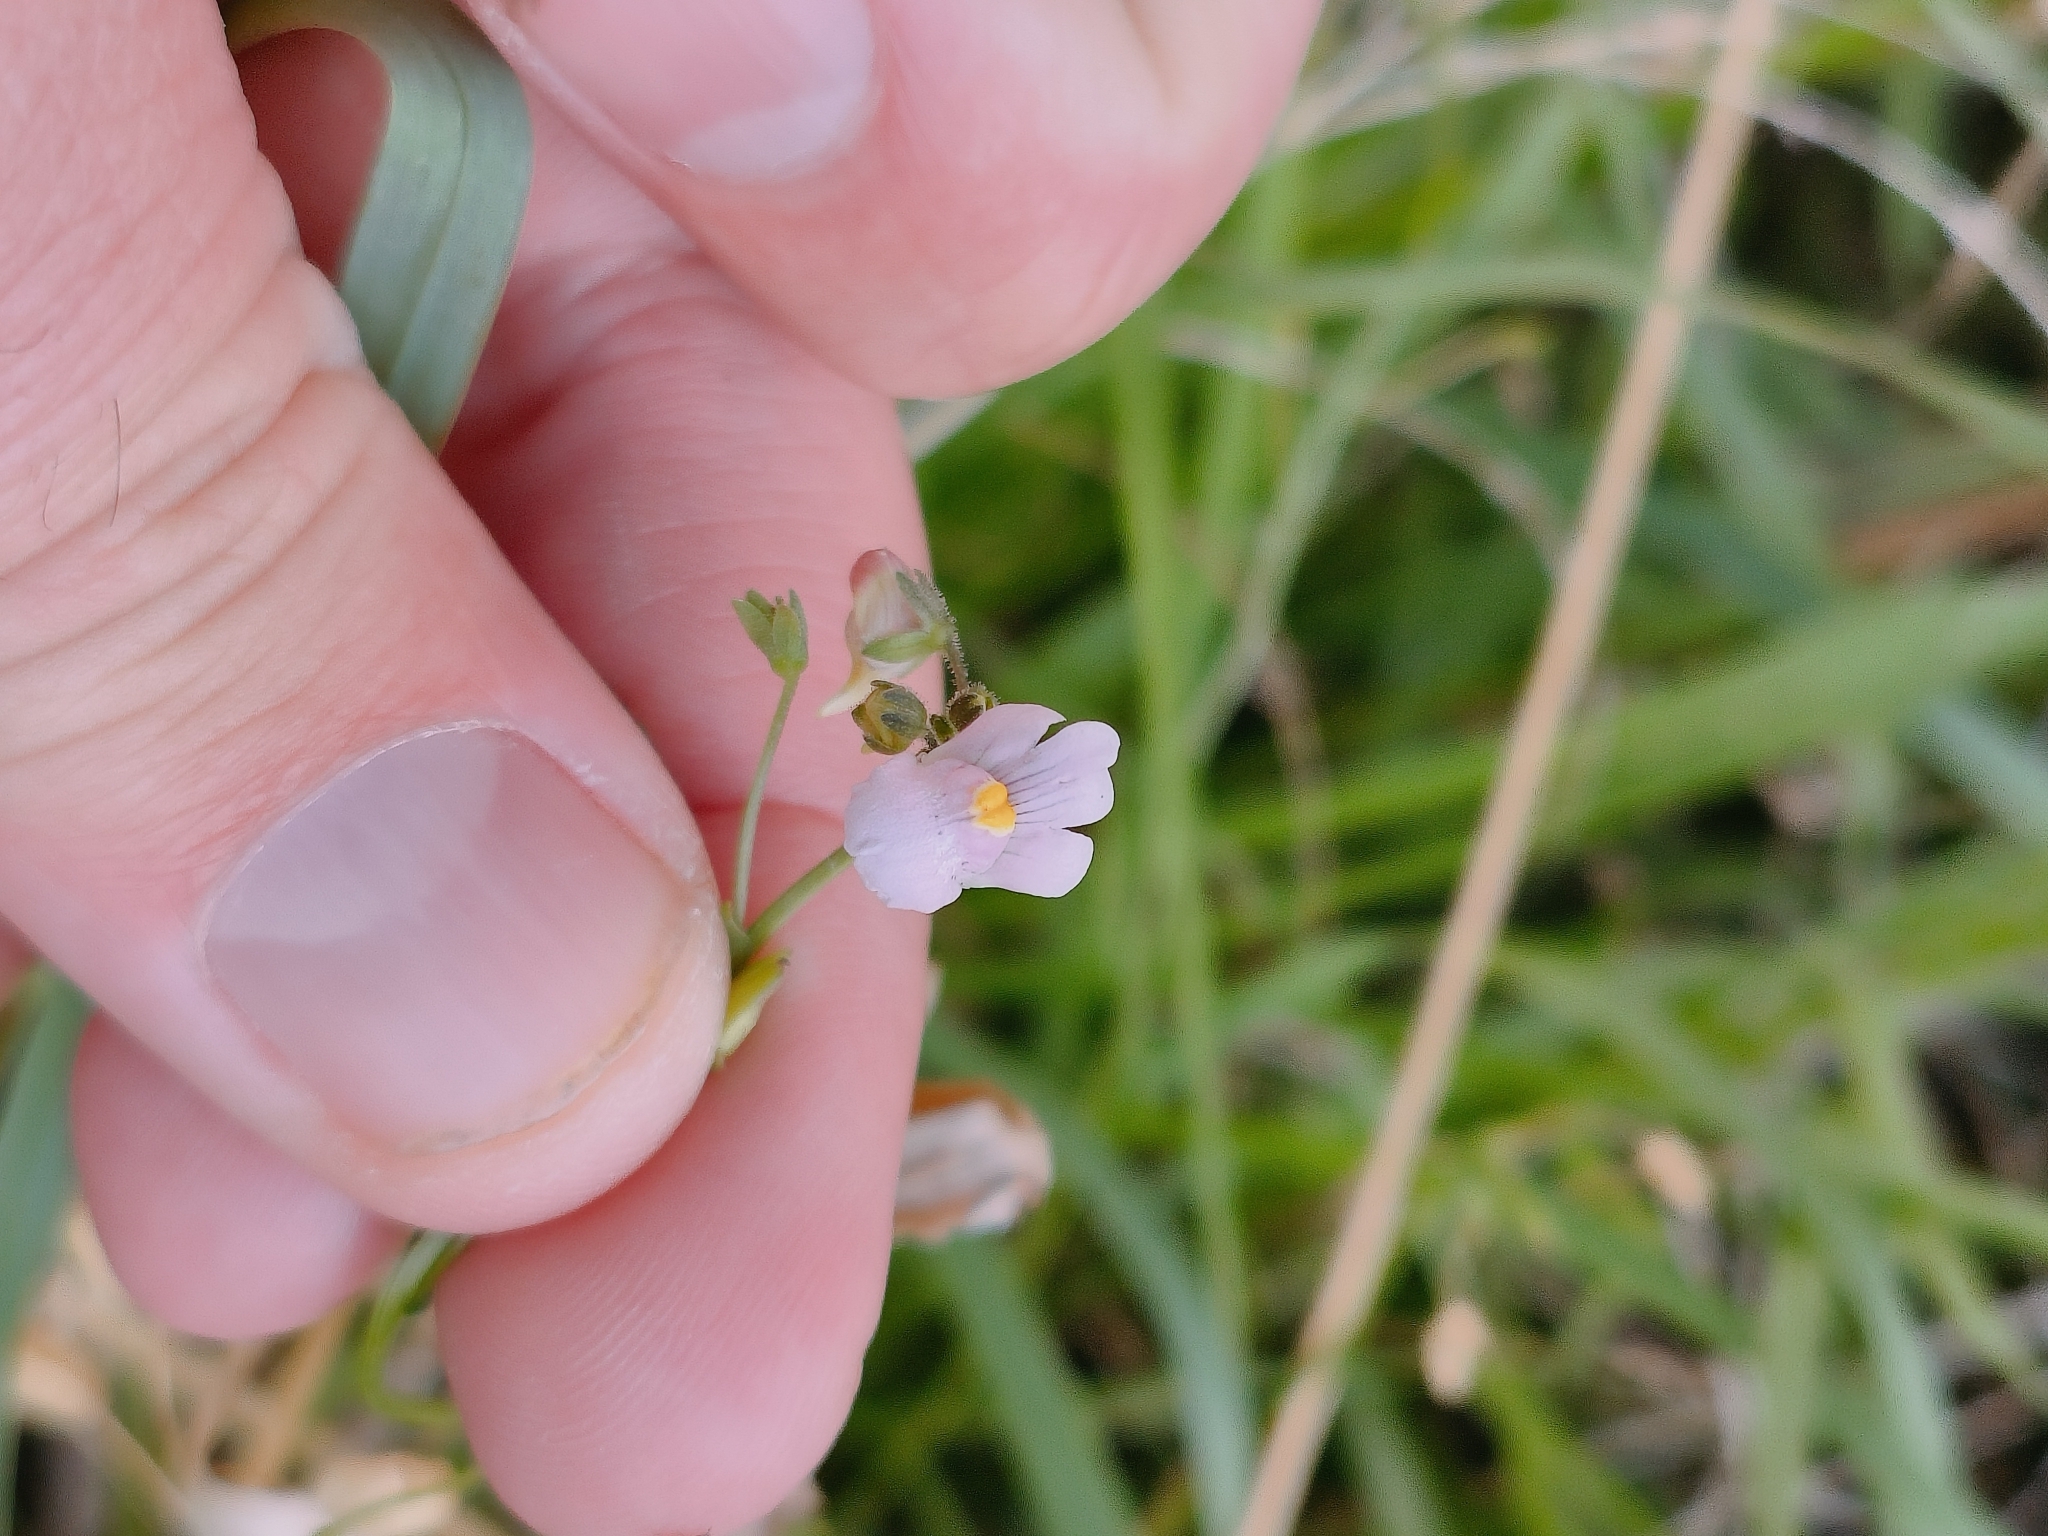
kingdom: Plantae
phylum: Tracheophyta
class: Magnoliopsida
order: Lamiales
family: Scrophulariaceae
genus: Nemesia
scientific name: Nemesia fruticans
